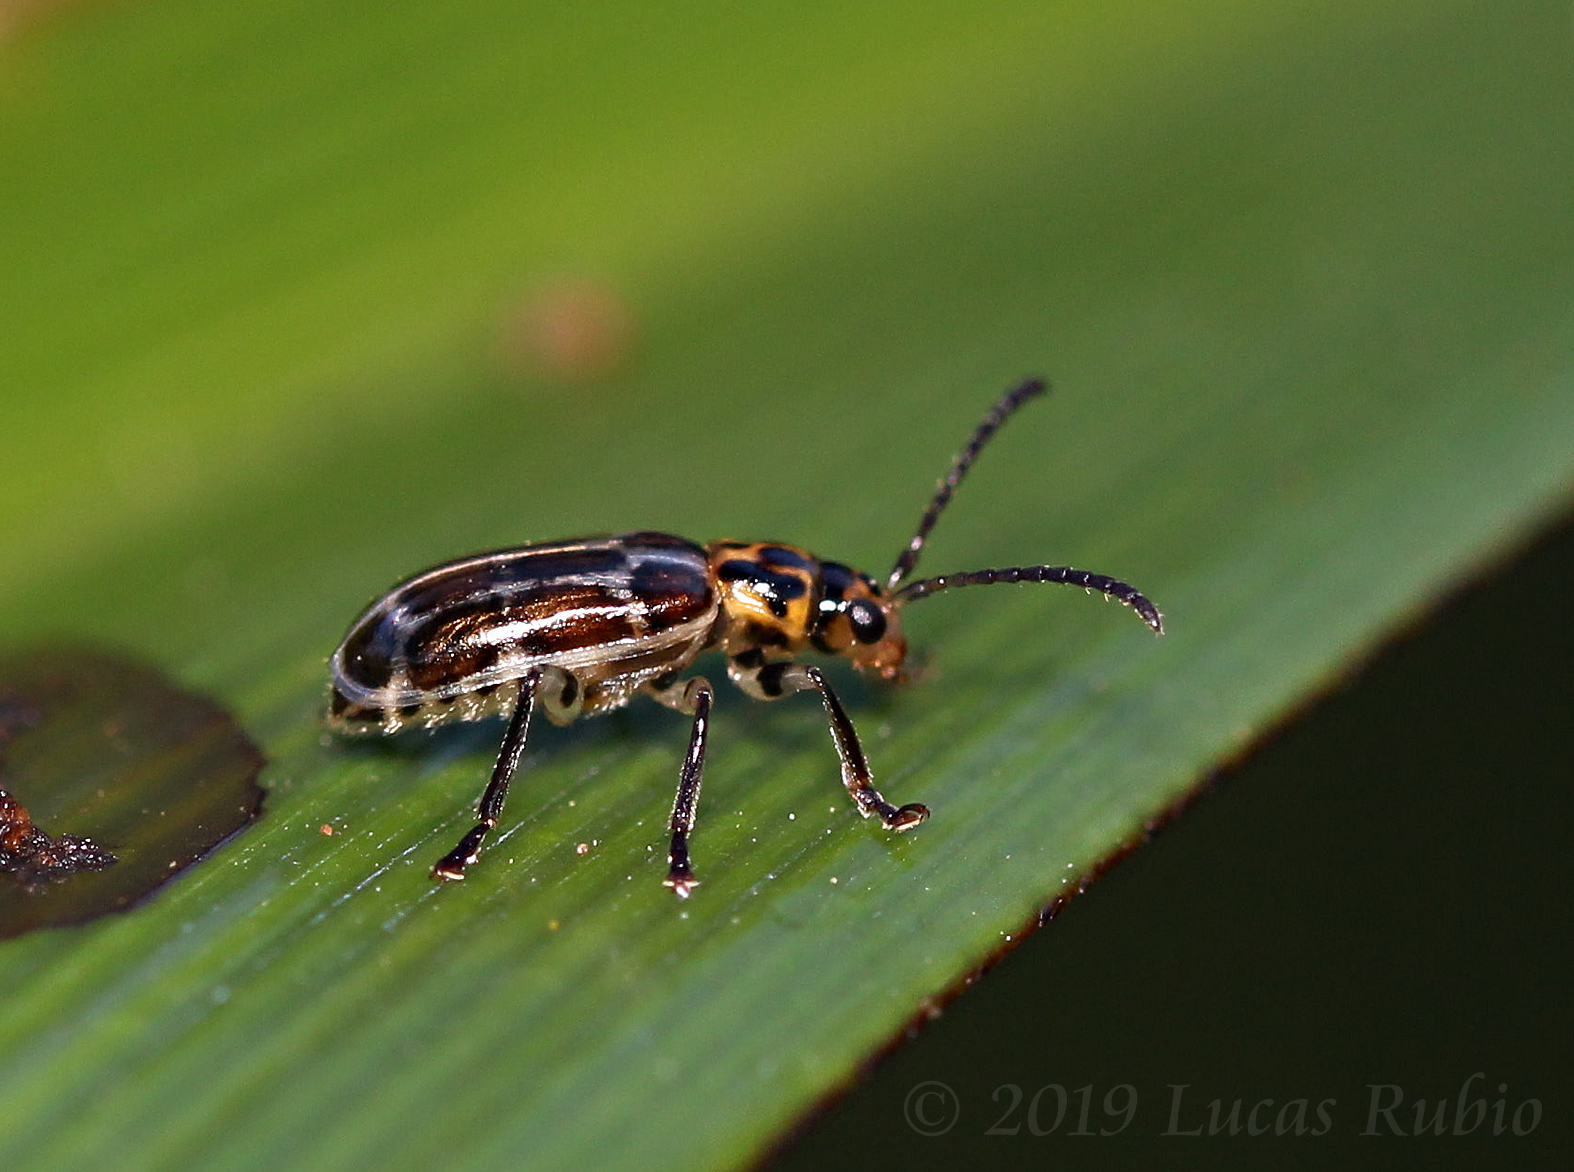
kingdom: Animalia
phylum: Arthropoda
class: Insecta
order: Coleoptera
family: Chrysomelidae
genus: Anisobrotica
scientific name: Anisobrotica
